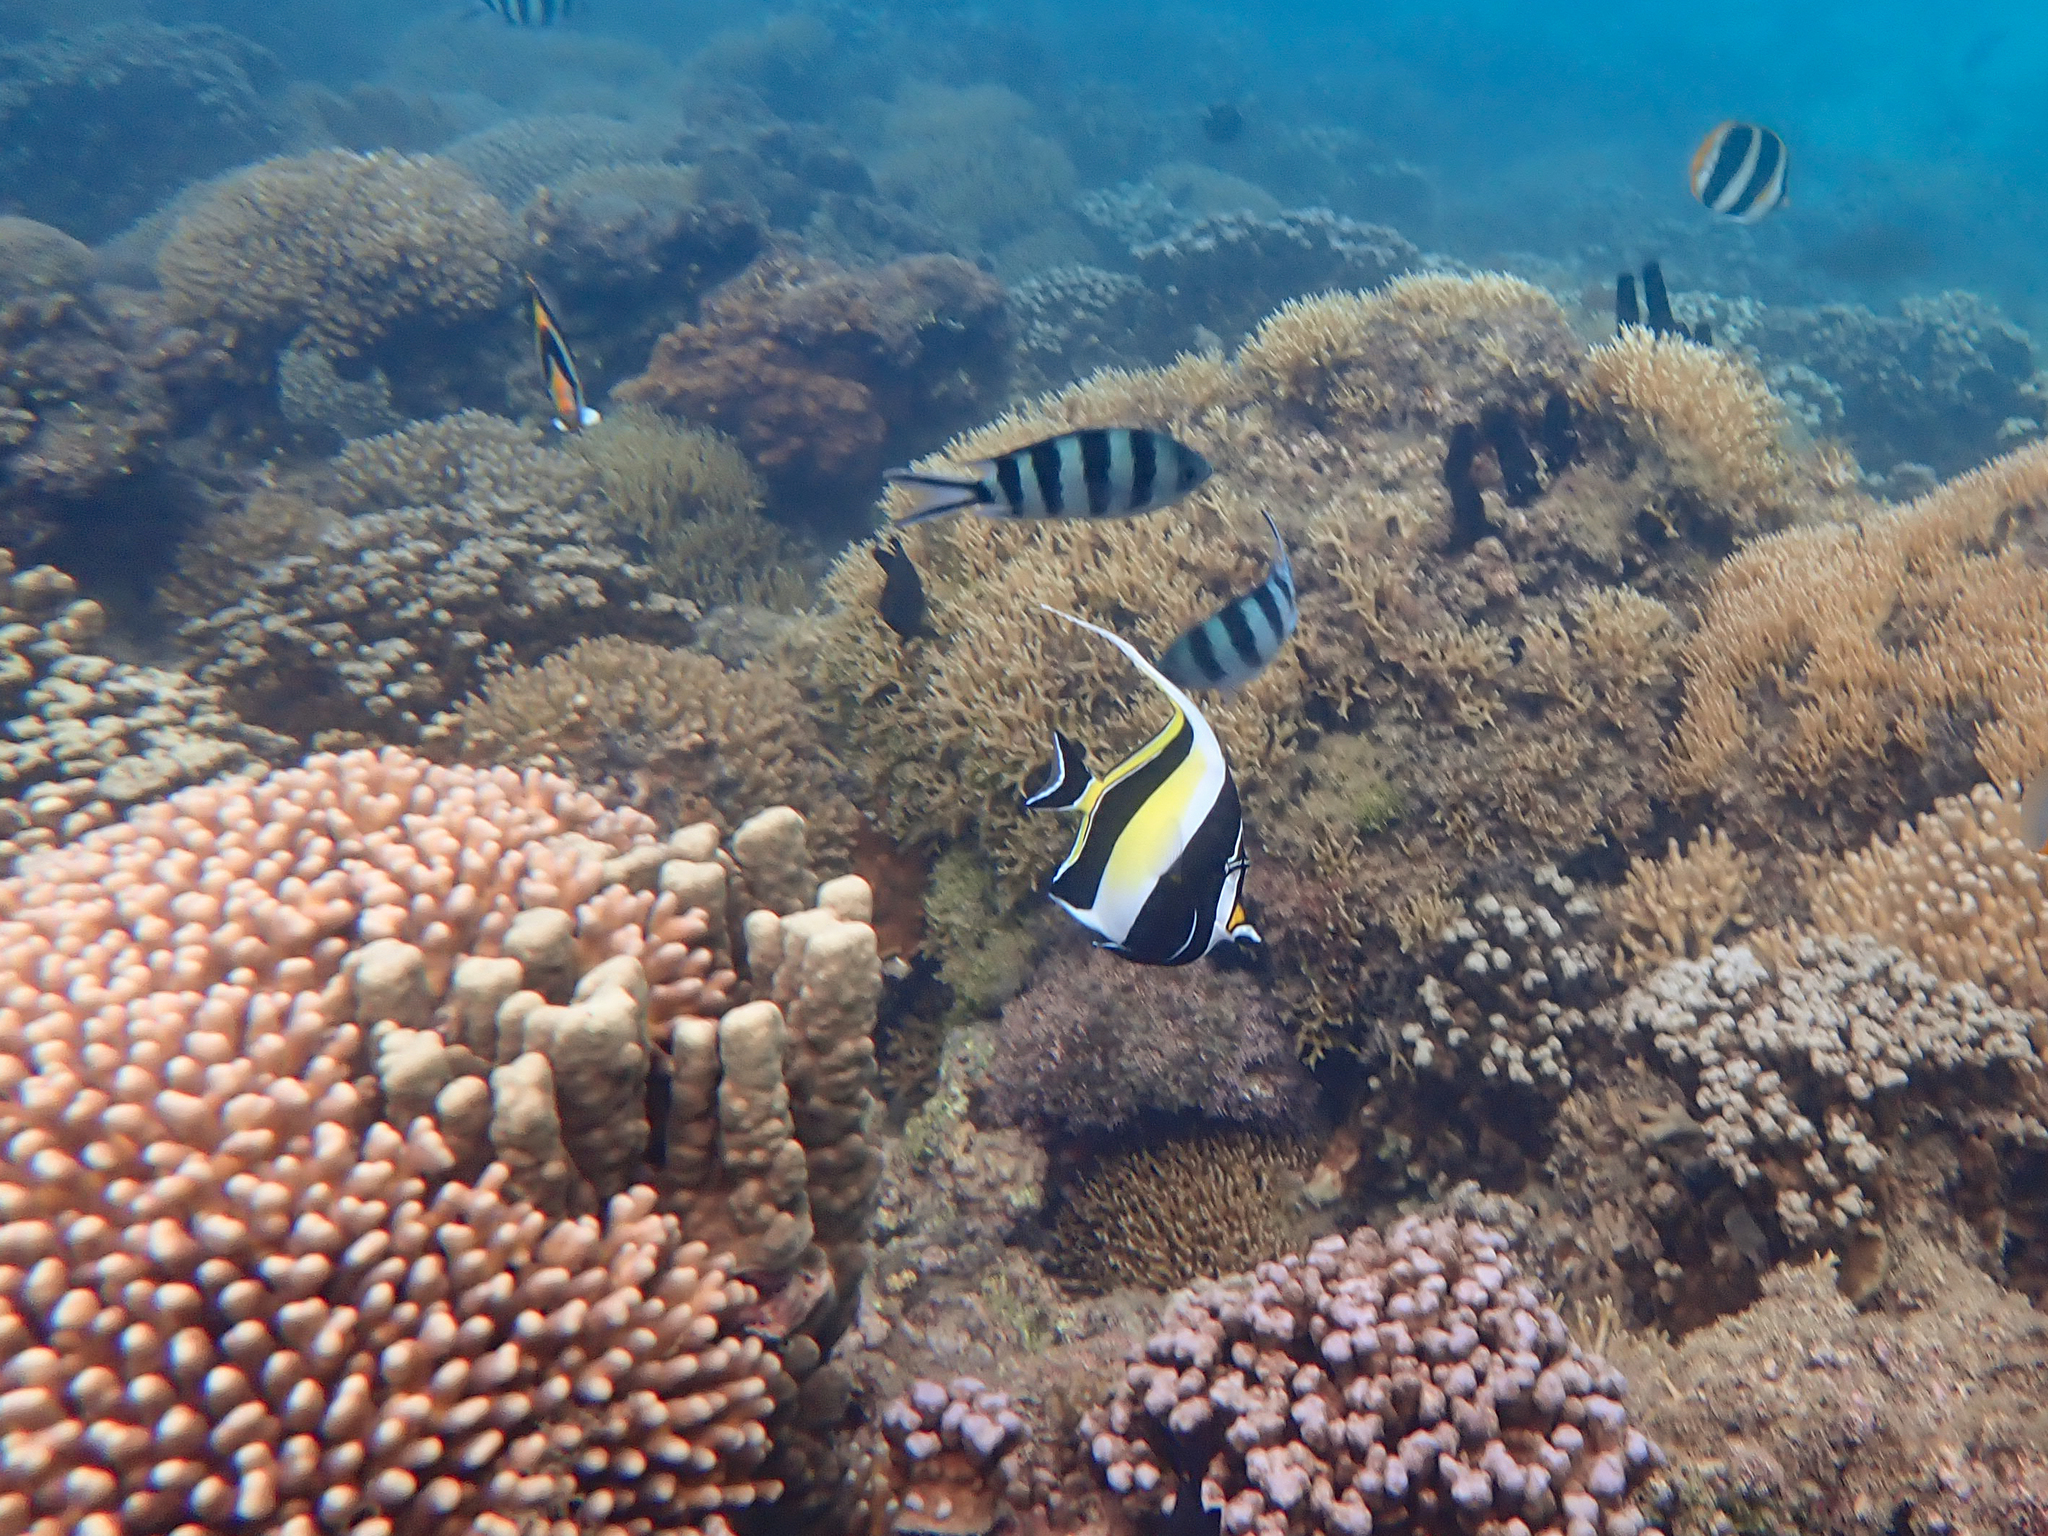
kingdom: Animalia
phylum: Chordata
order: Perciformes
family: Zanclidae
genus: Zanclus
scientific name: Zanclus cornutus
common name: Moorish idol
